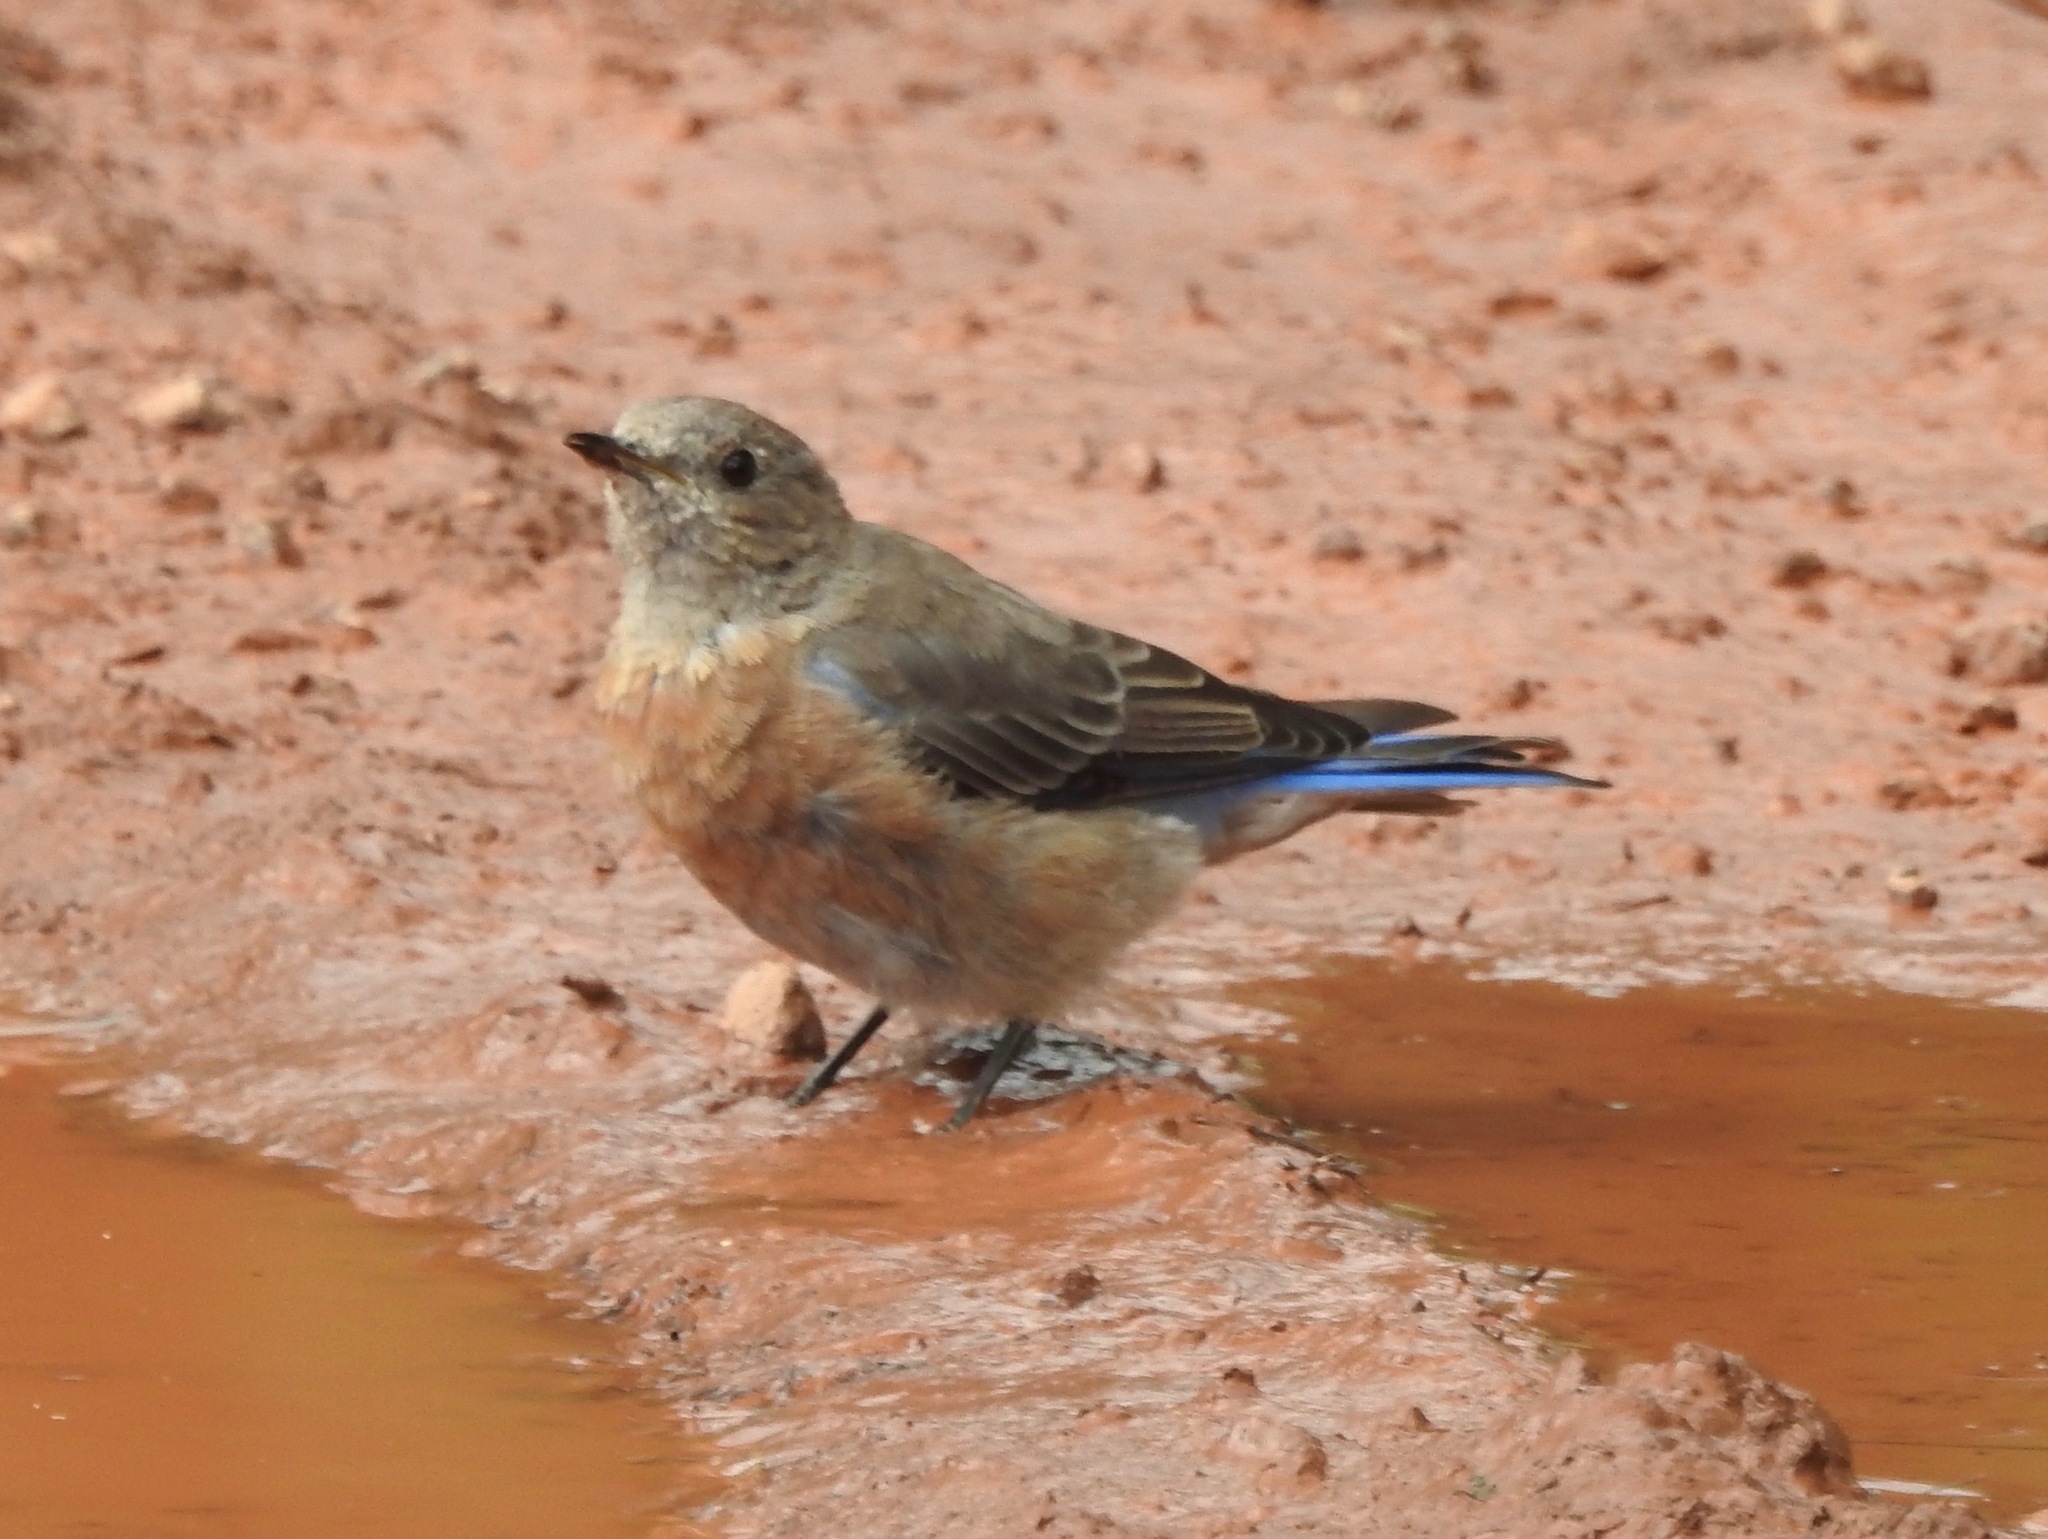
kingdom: Animalia
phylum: Chordata
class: Aves
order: Passeriformes
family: Turdidae
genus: Sialia
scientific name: Sialia mexicana
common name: Western bluebird
